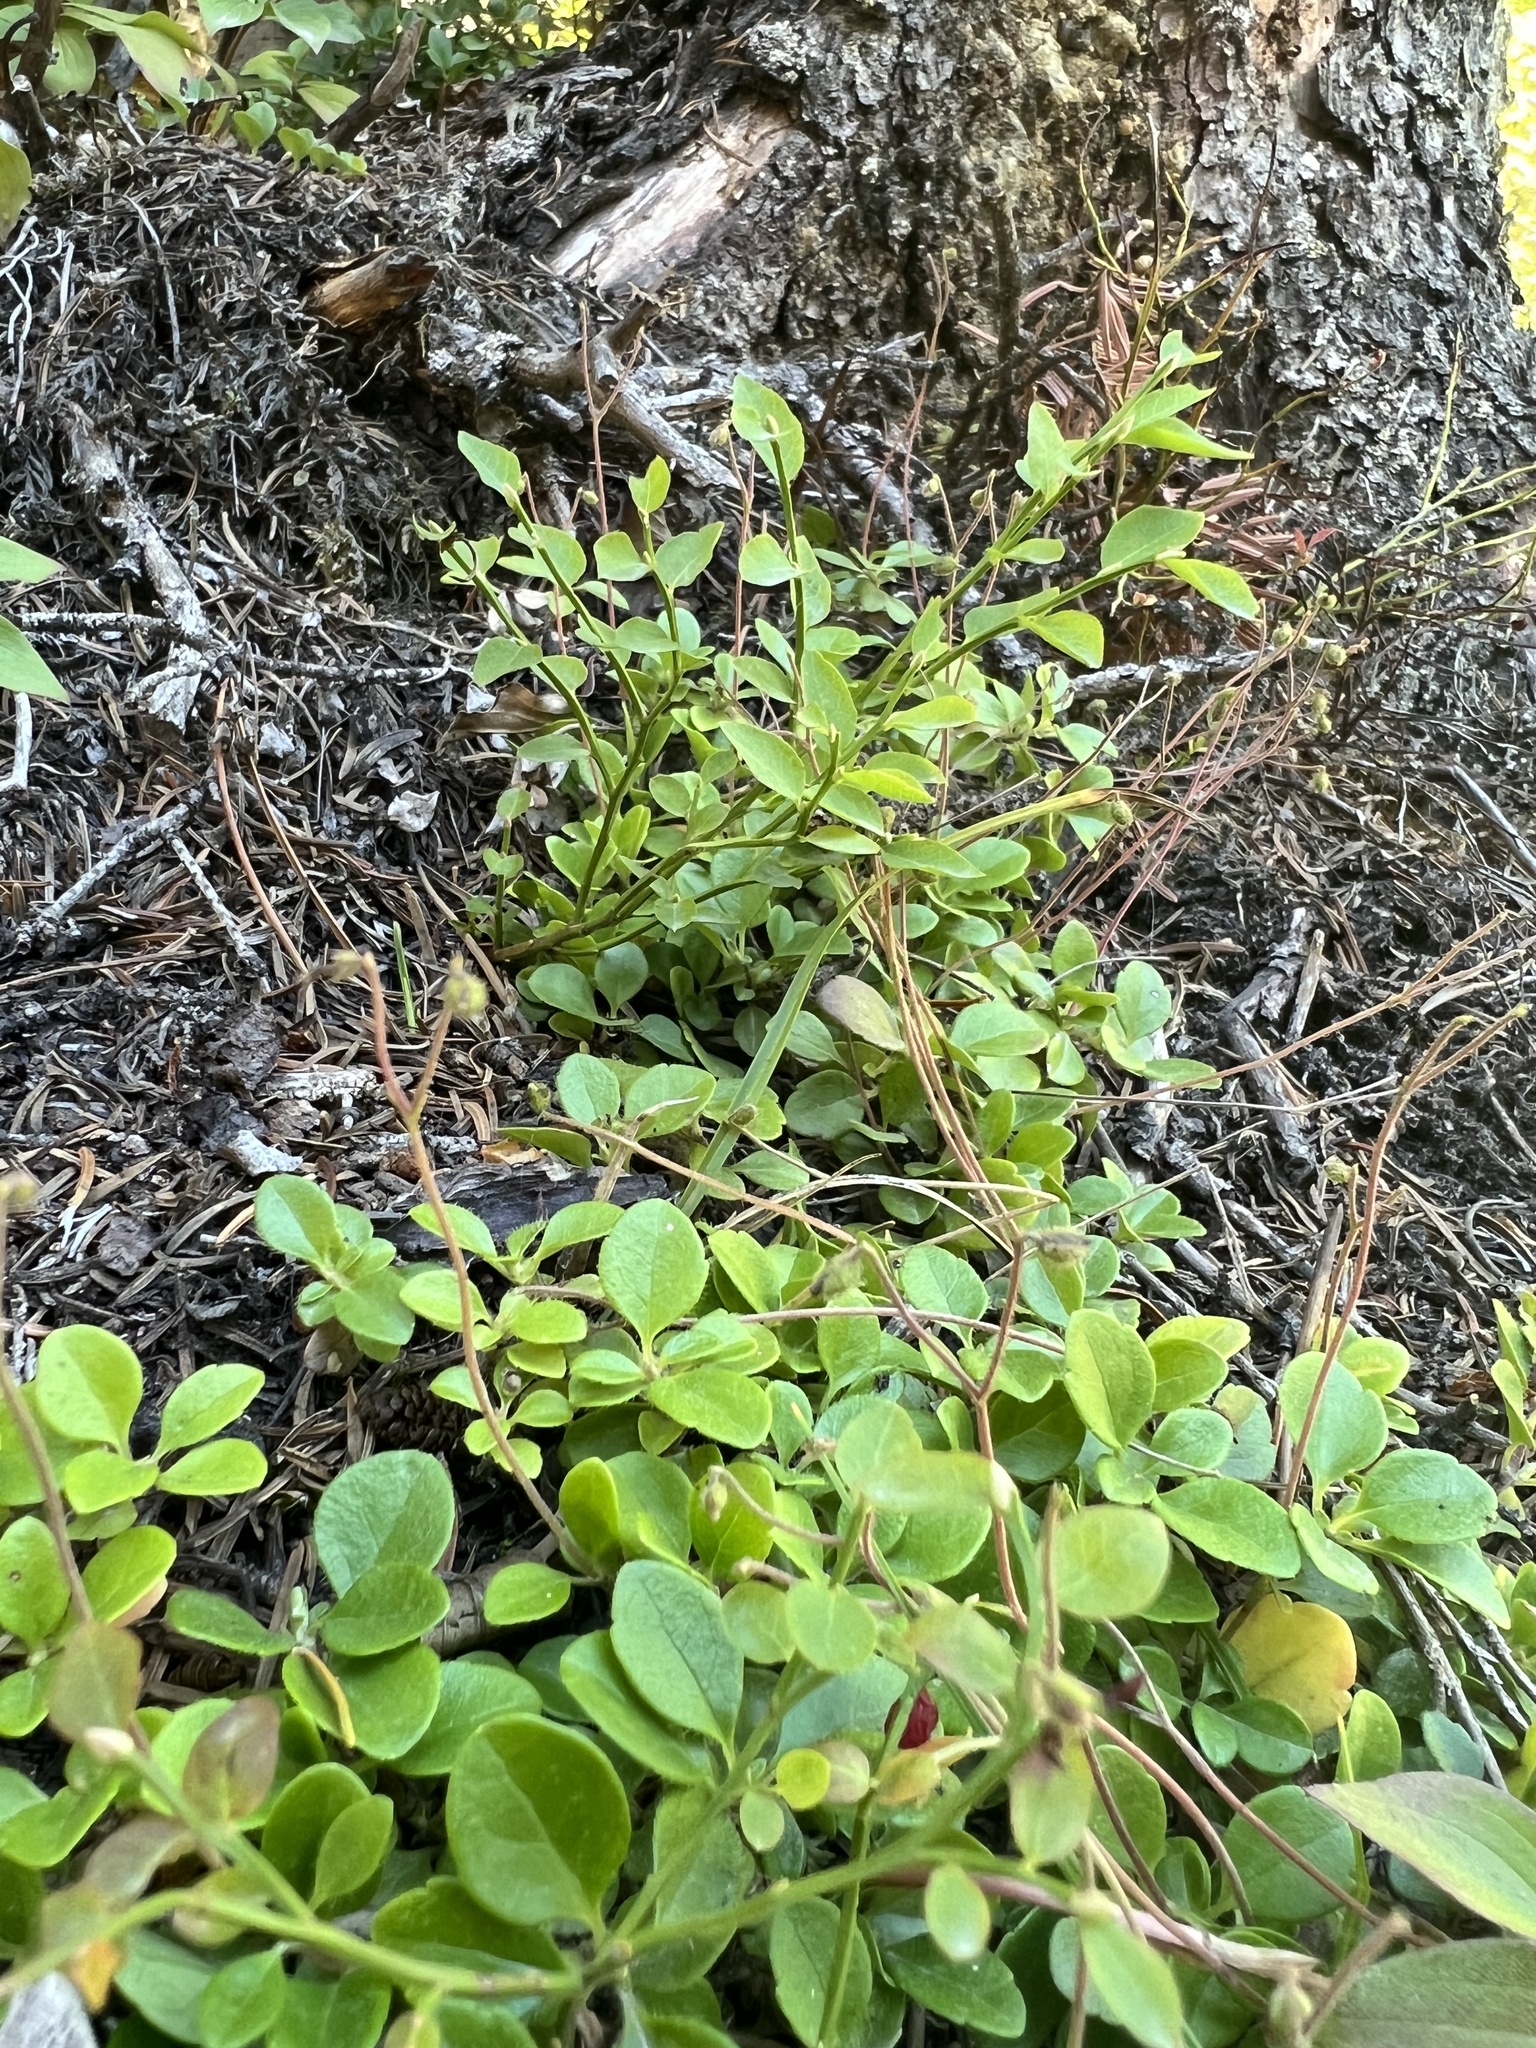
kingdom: Plantae
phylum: Tracheophyta
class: Magnoliopsida
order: Dipsacales
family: Caprifoliaceae
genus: Linnaea
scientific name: Linnaea borealis
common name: Twinflower
